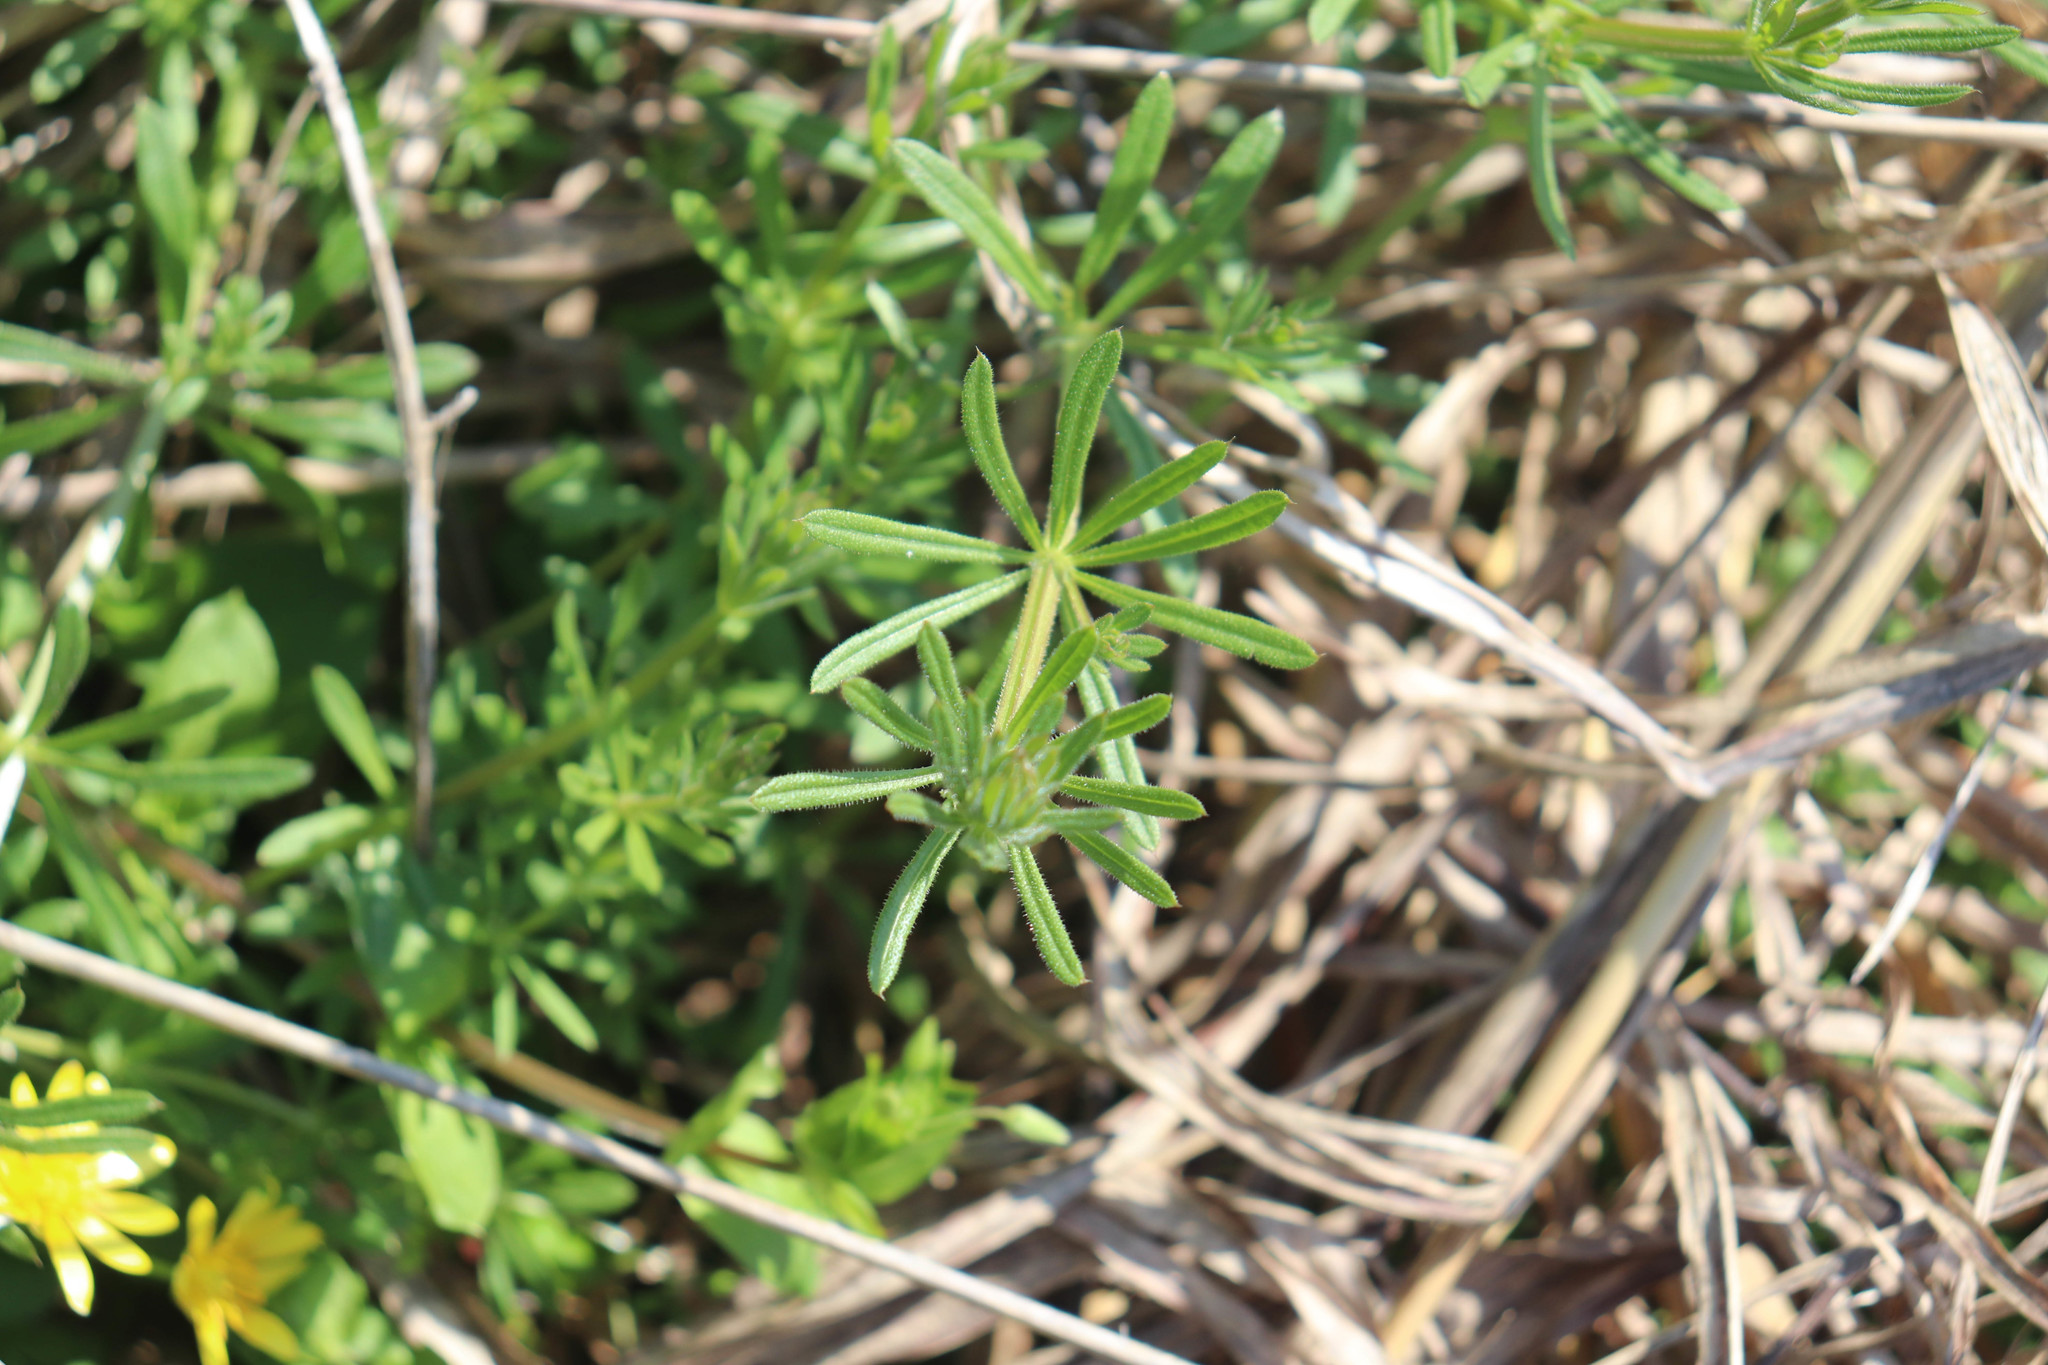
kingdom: Plantae
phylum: Tracheophyta
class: Magnoliopsida
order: Gentianales
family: Rubiaceae
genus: Galium
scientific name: Galium aparine
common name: Cleavers
